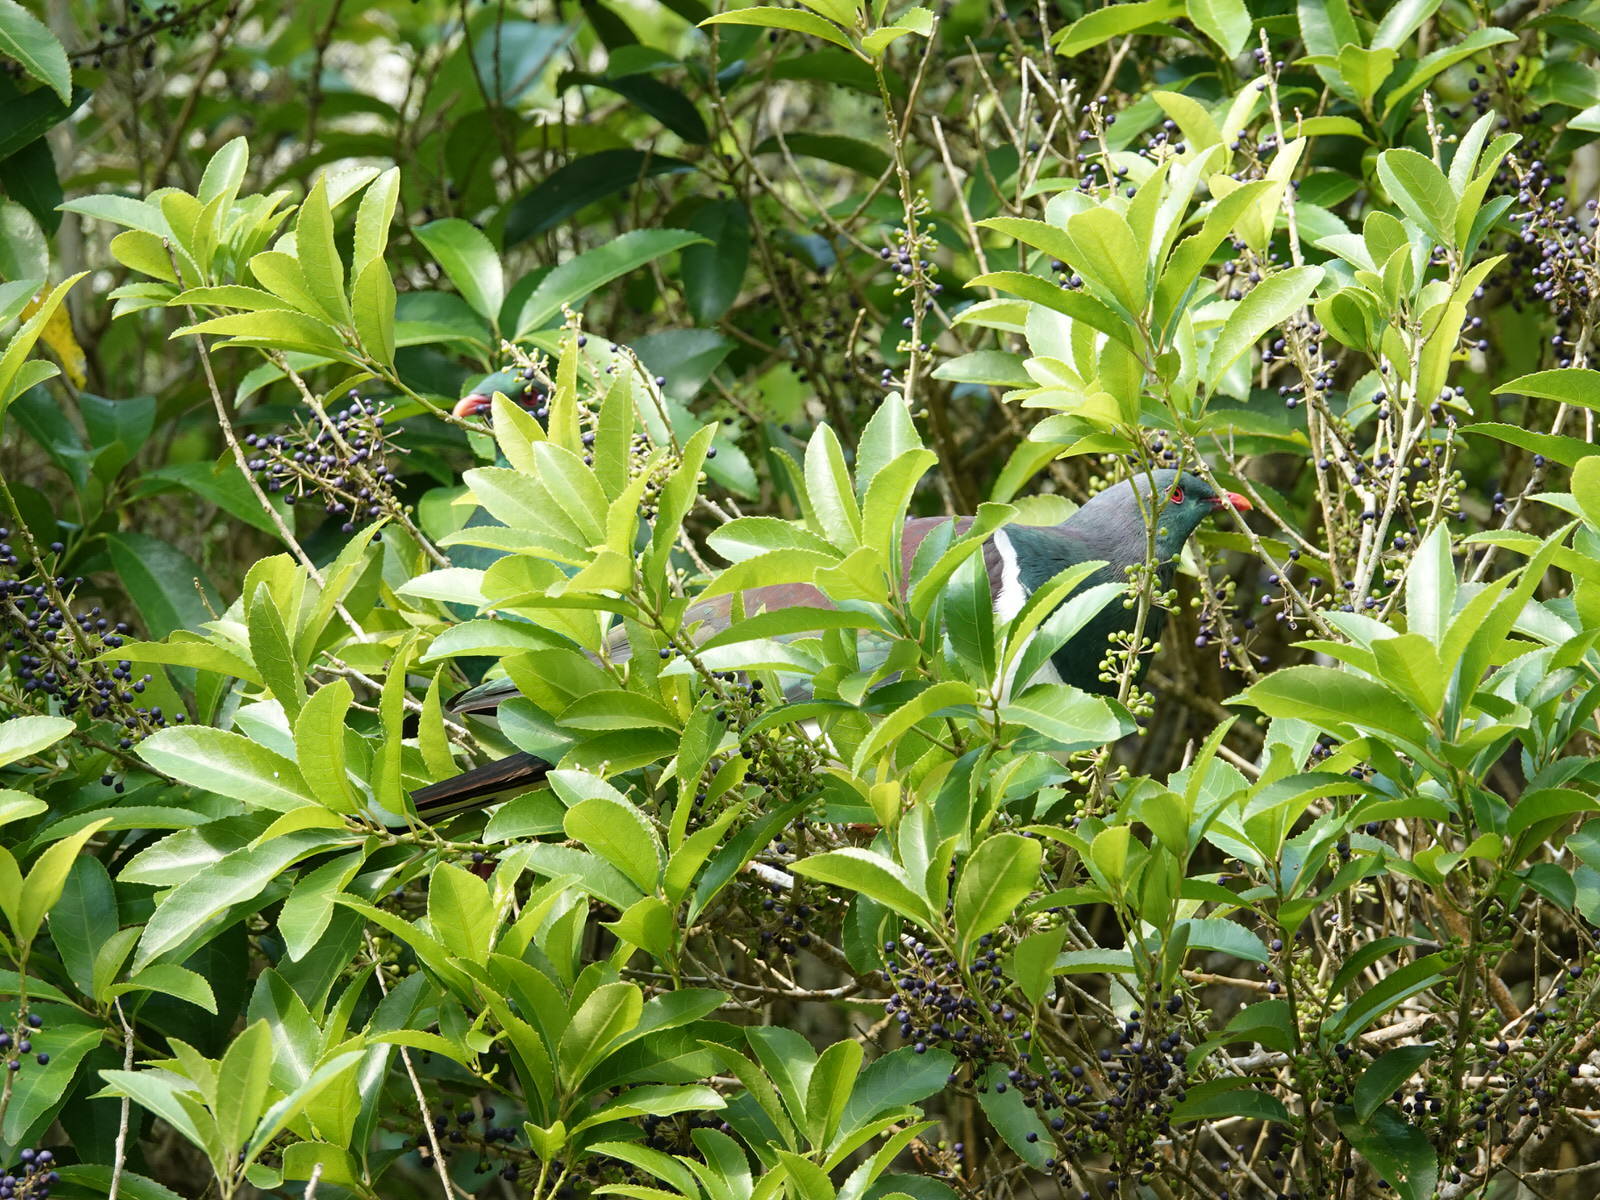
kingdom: Animalia
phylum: Chordata
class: Aves
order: Columbiformes
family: Columbidae
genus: Hemiphaga
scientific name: Hemiphaga novaeseelandiae
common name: New zealand pigeon
